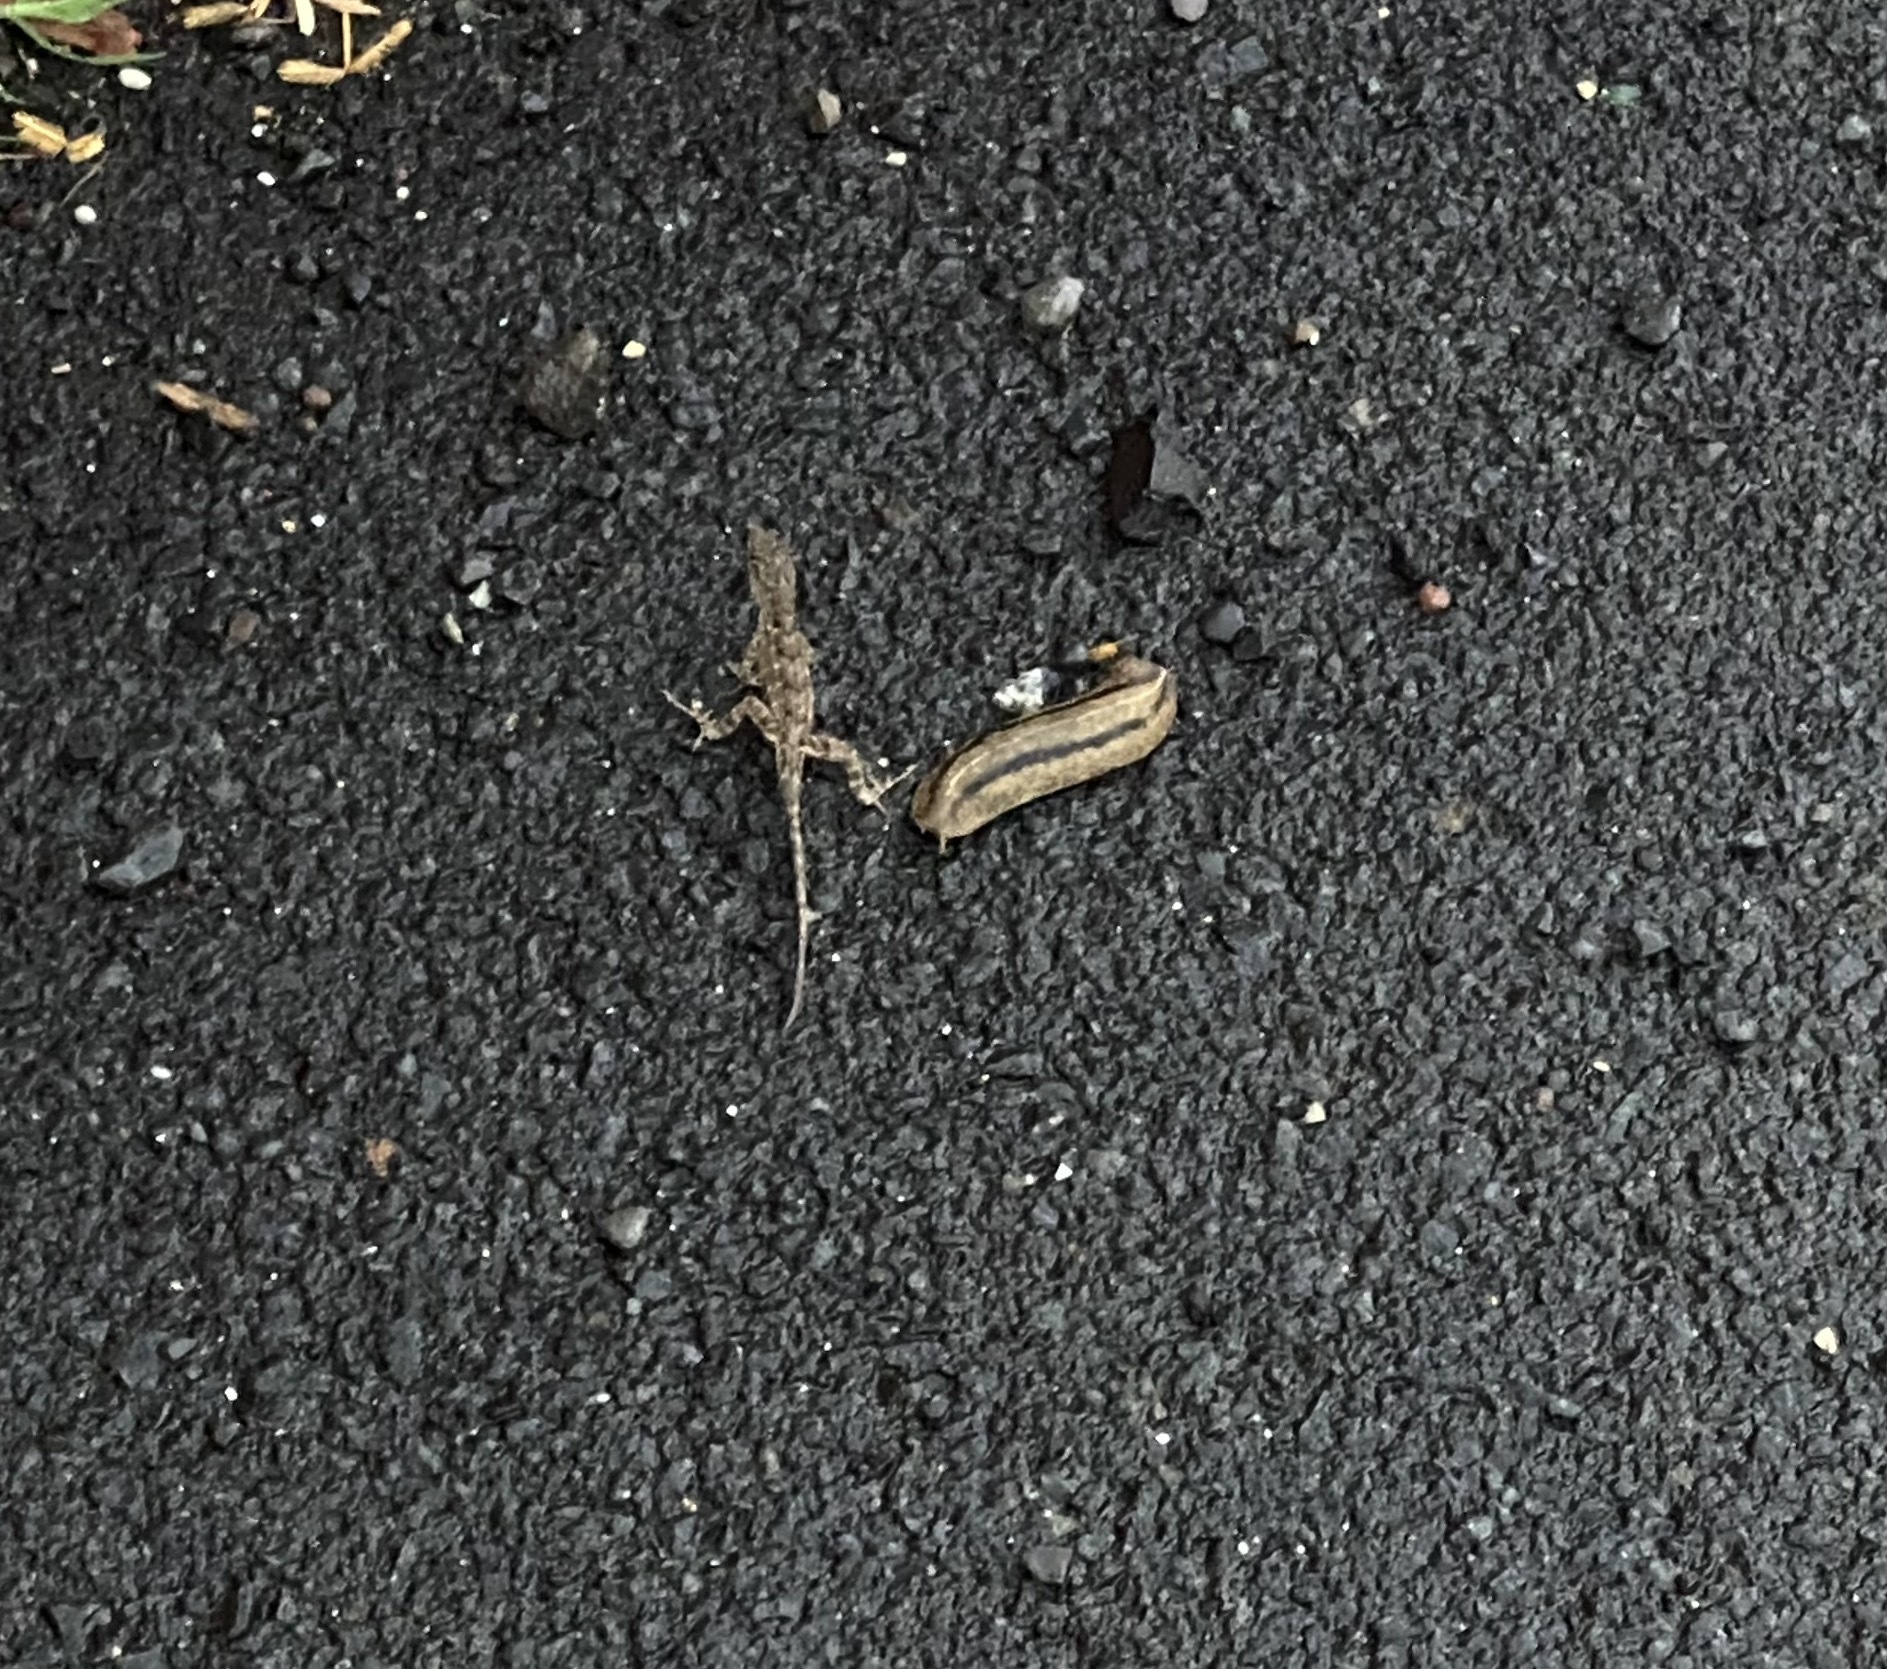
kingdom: Animalia
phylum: Chordata
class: Squamata
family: Dactyloidae
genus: Anolis
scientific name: Anolis sagrei
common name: Brown anole
